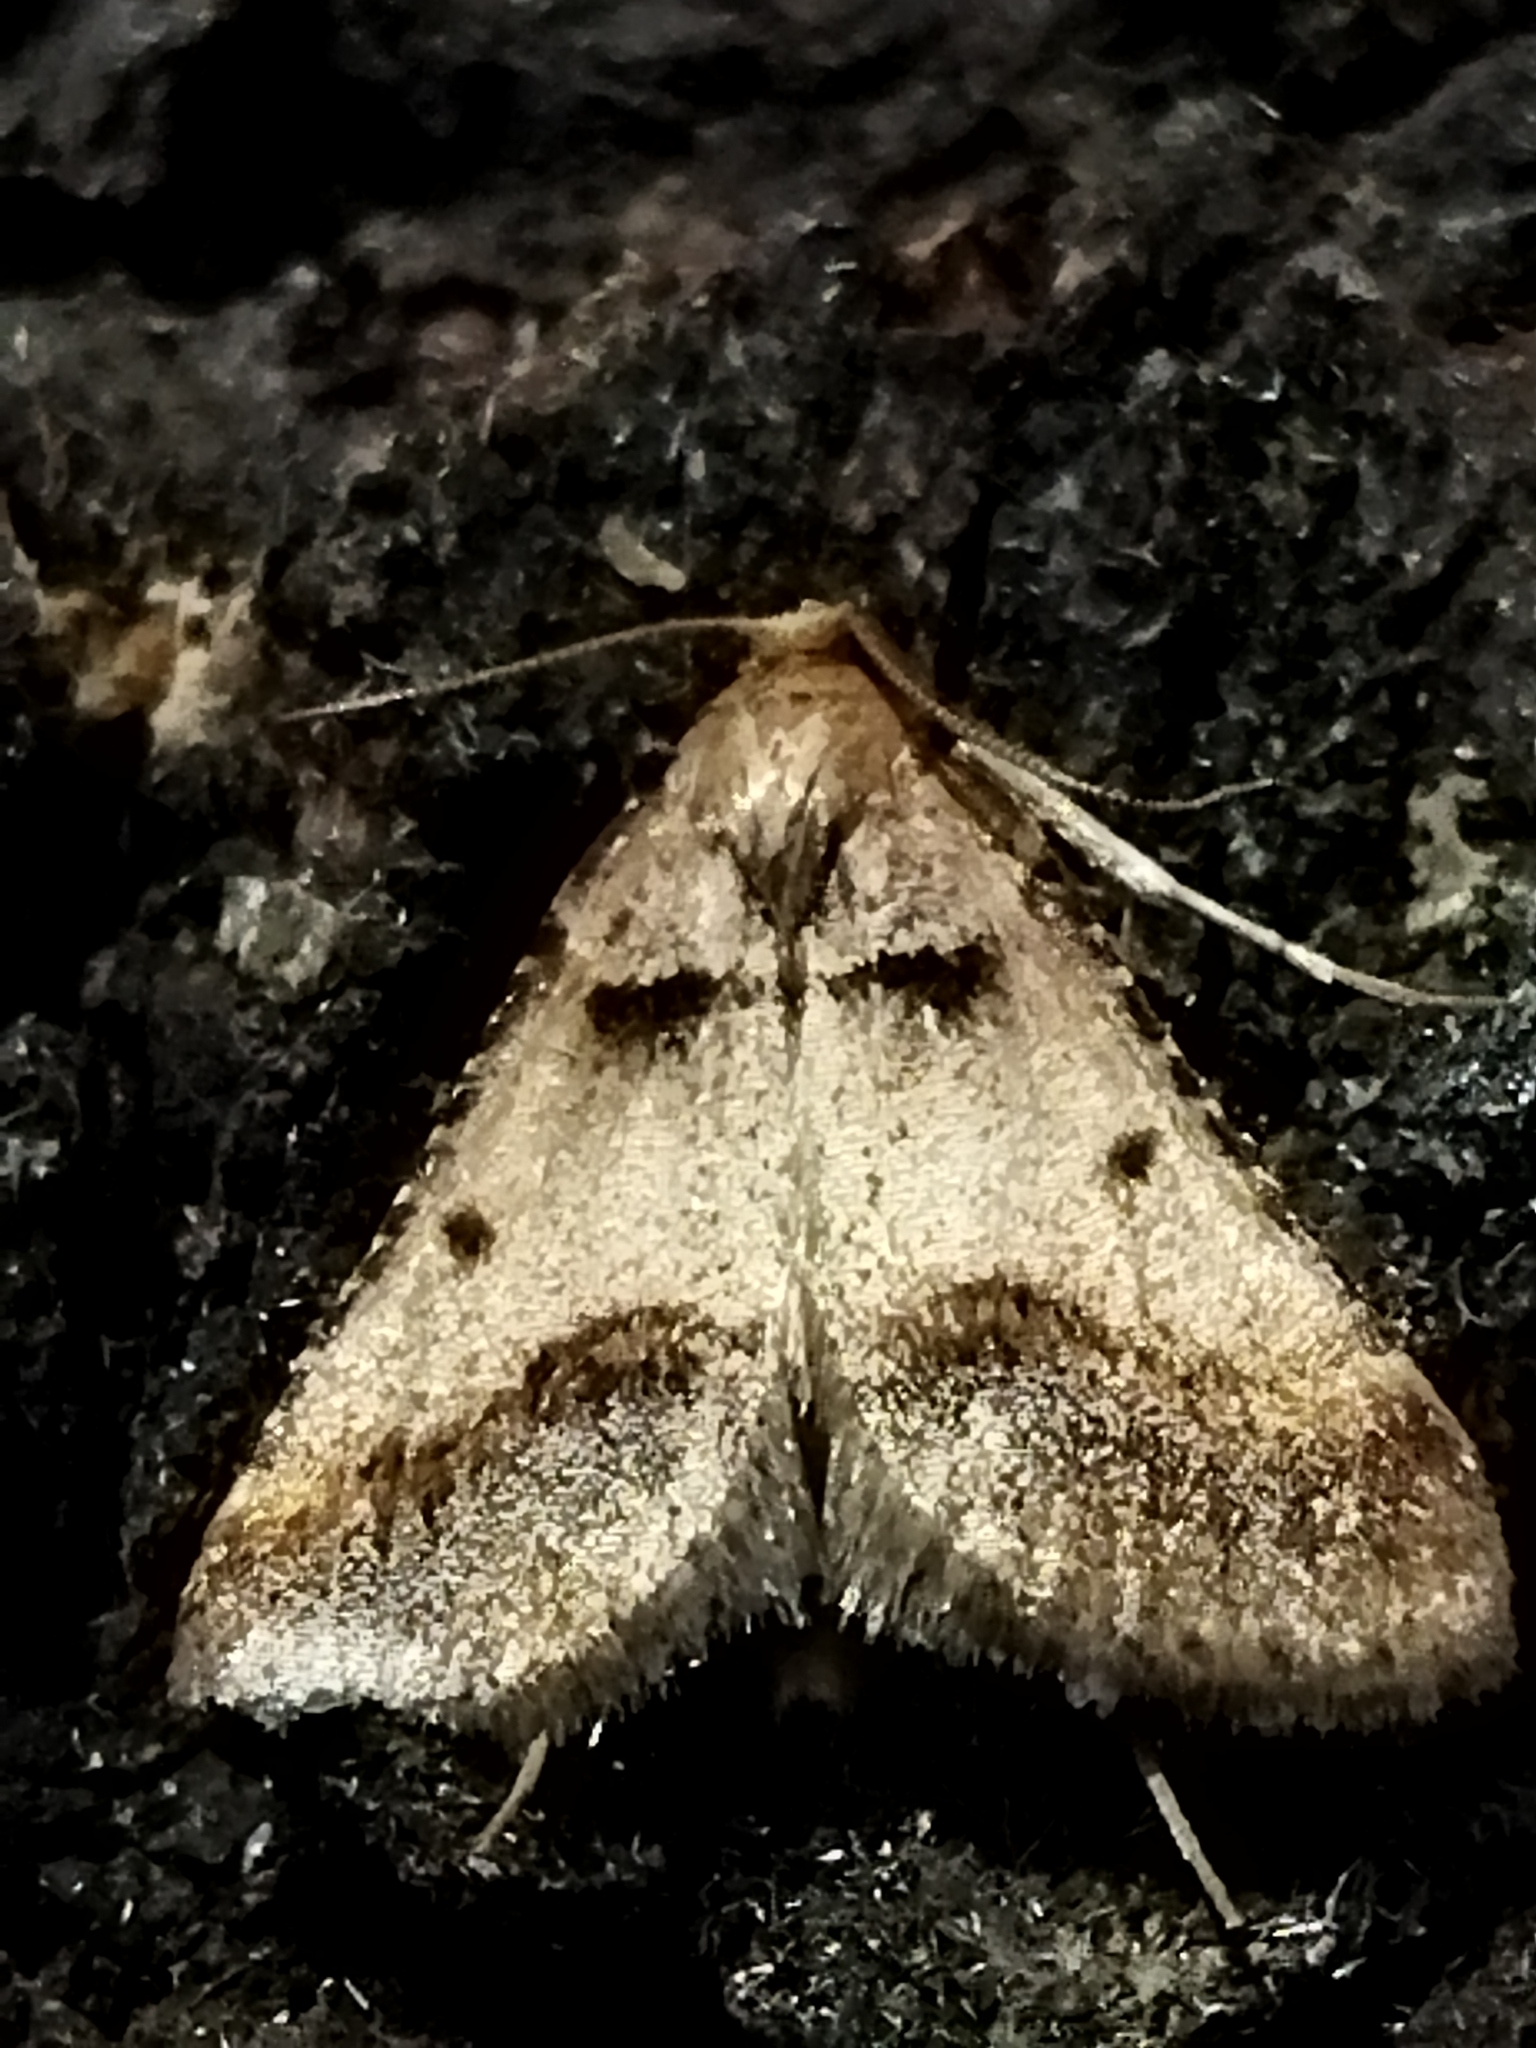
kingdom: Animalia
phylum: Arthropoda
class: Insecta
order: Lepidoptera
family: Pyralidae
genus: Stemmatophora
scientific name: Stemmatophora brunnealis
